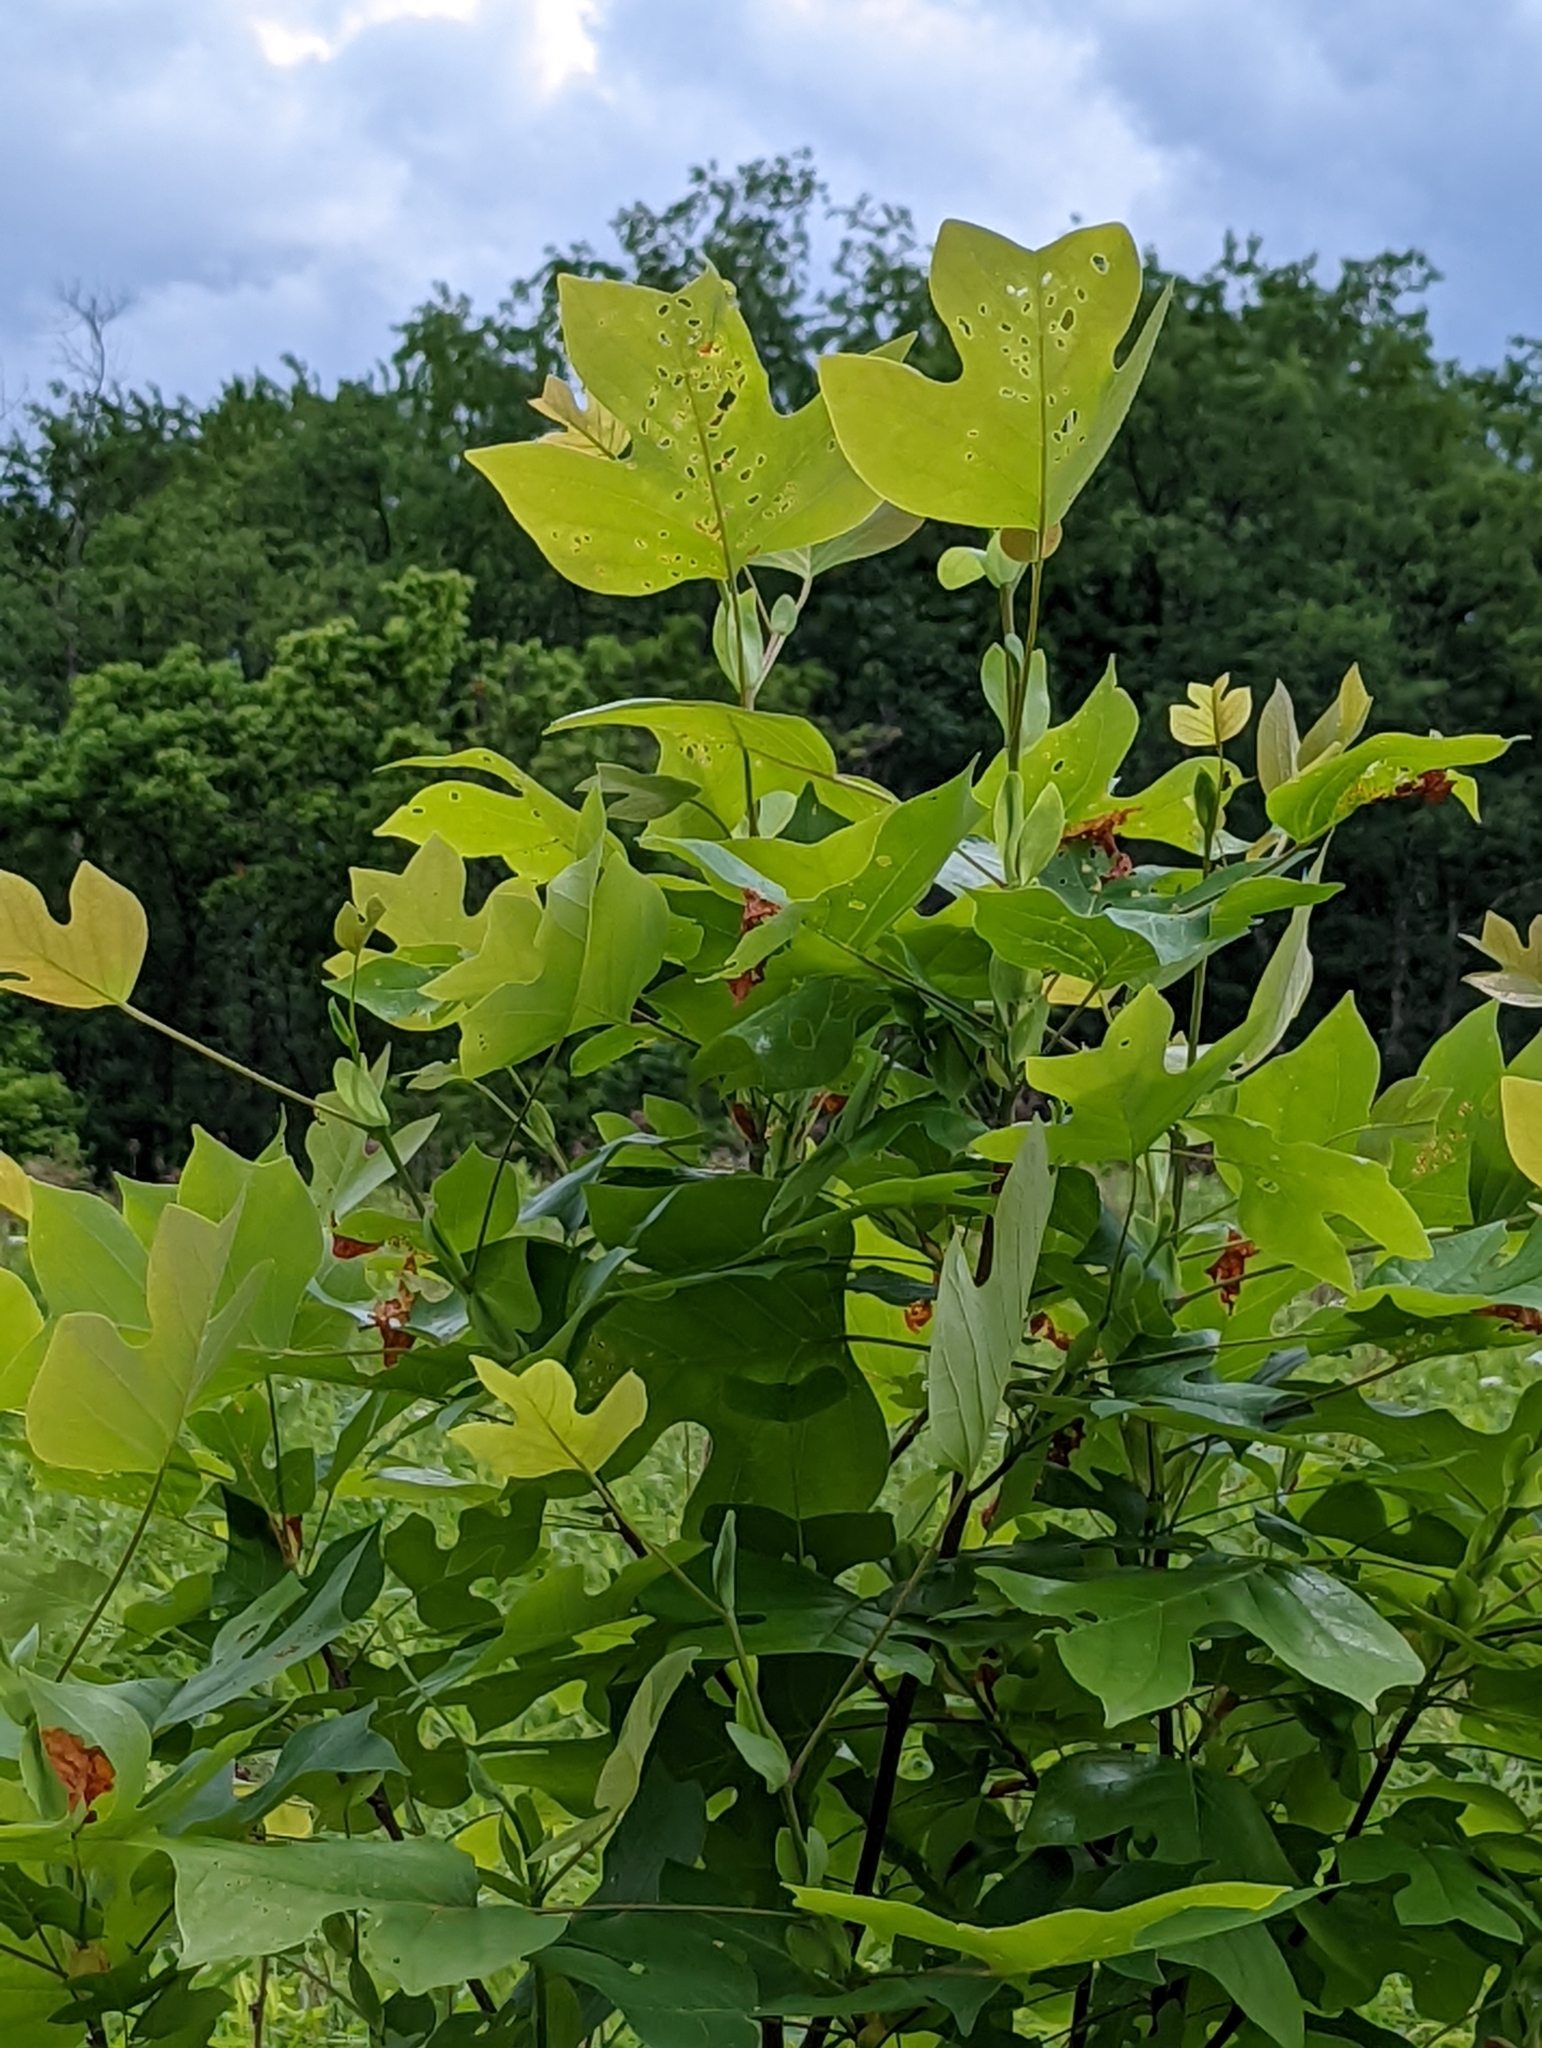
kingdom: Plantae
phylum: Tracheophyta
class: Magnoliopsida
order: Magnoliales
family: Magnoliaceae
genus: Liriodendron
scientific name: Liriodendron tulipifera
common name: Tulip tree
